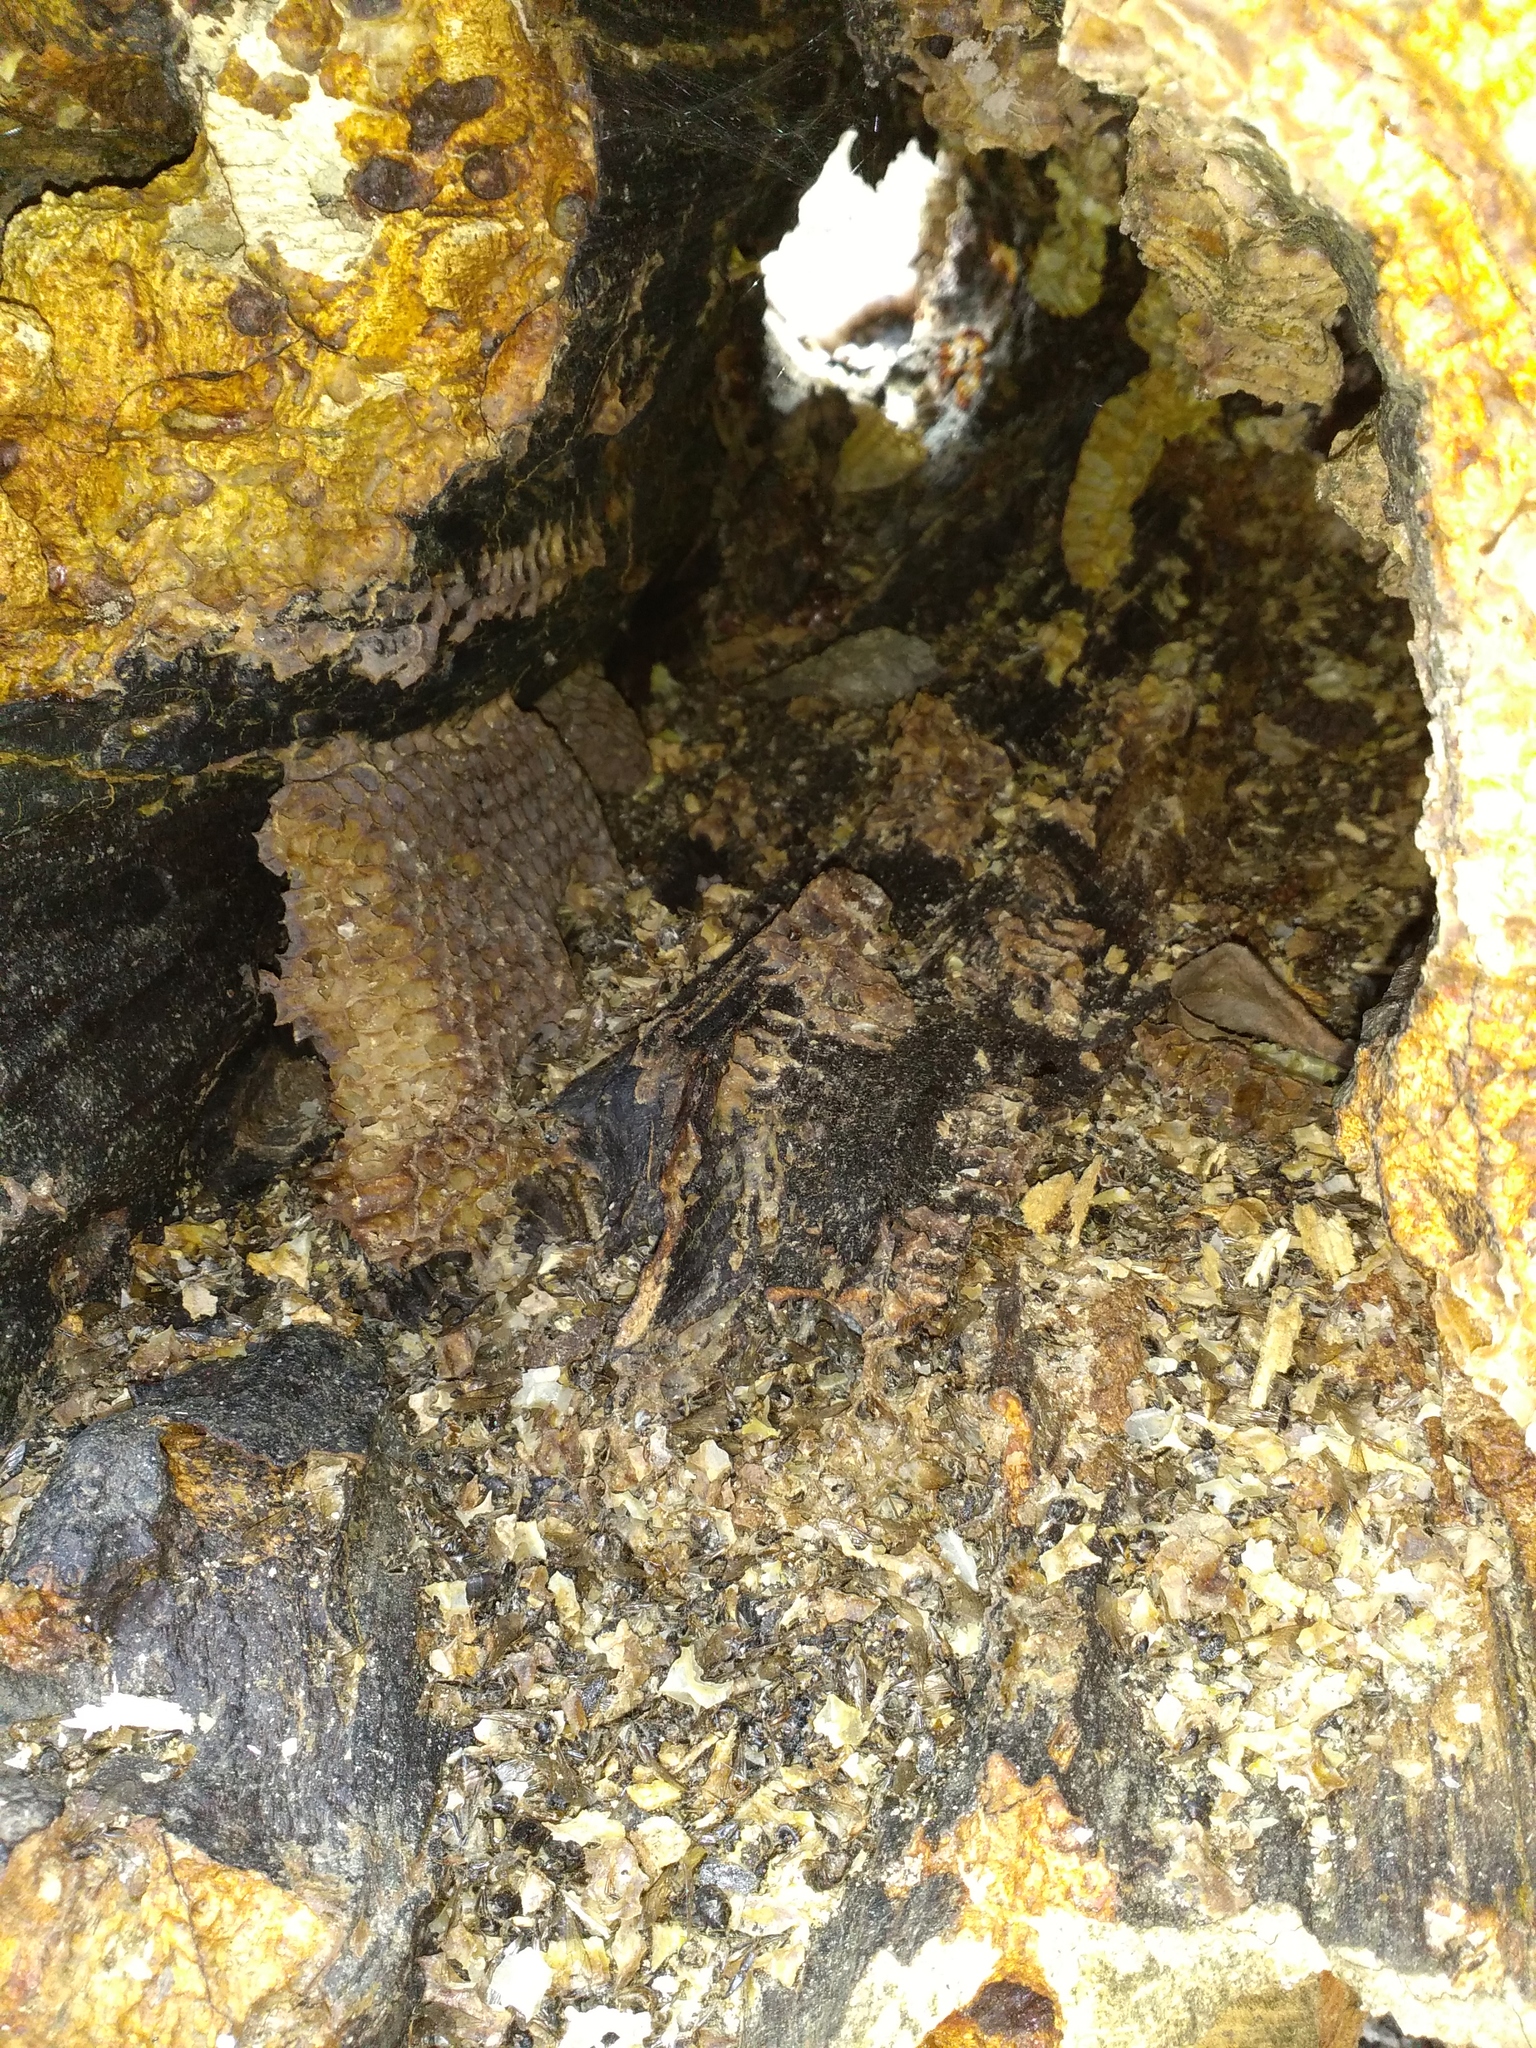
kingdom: Animalia
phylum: Arthropoda
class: Insecta
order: Hymenoptera
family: Apidae
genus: Apis
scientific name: Apis mellifera
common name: Honey bee
